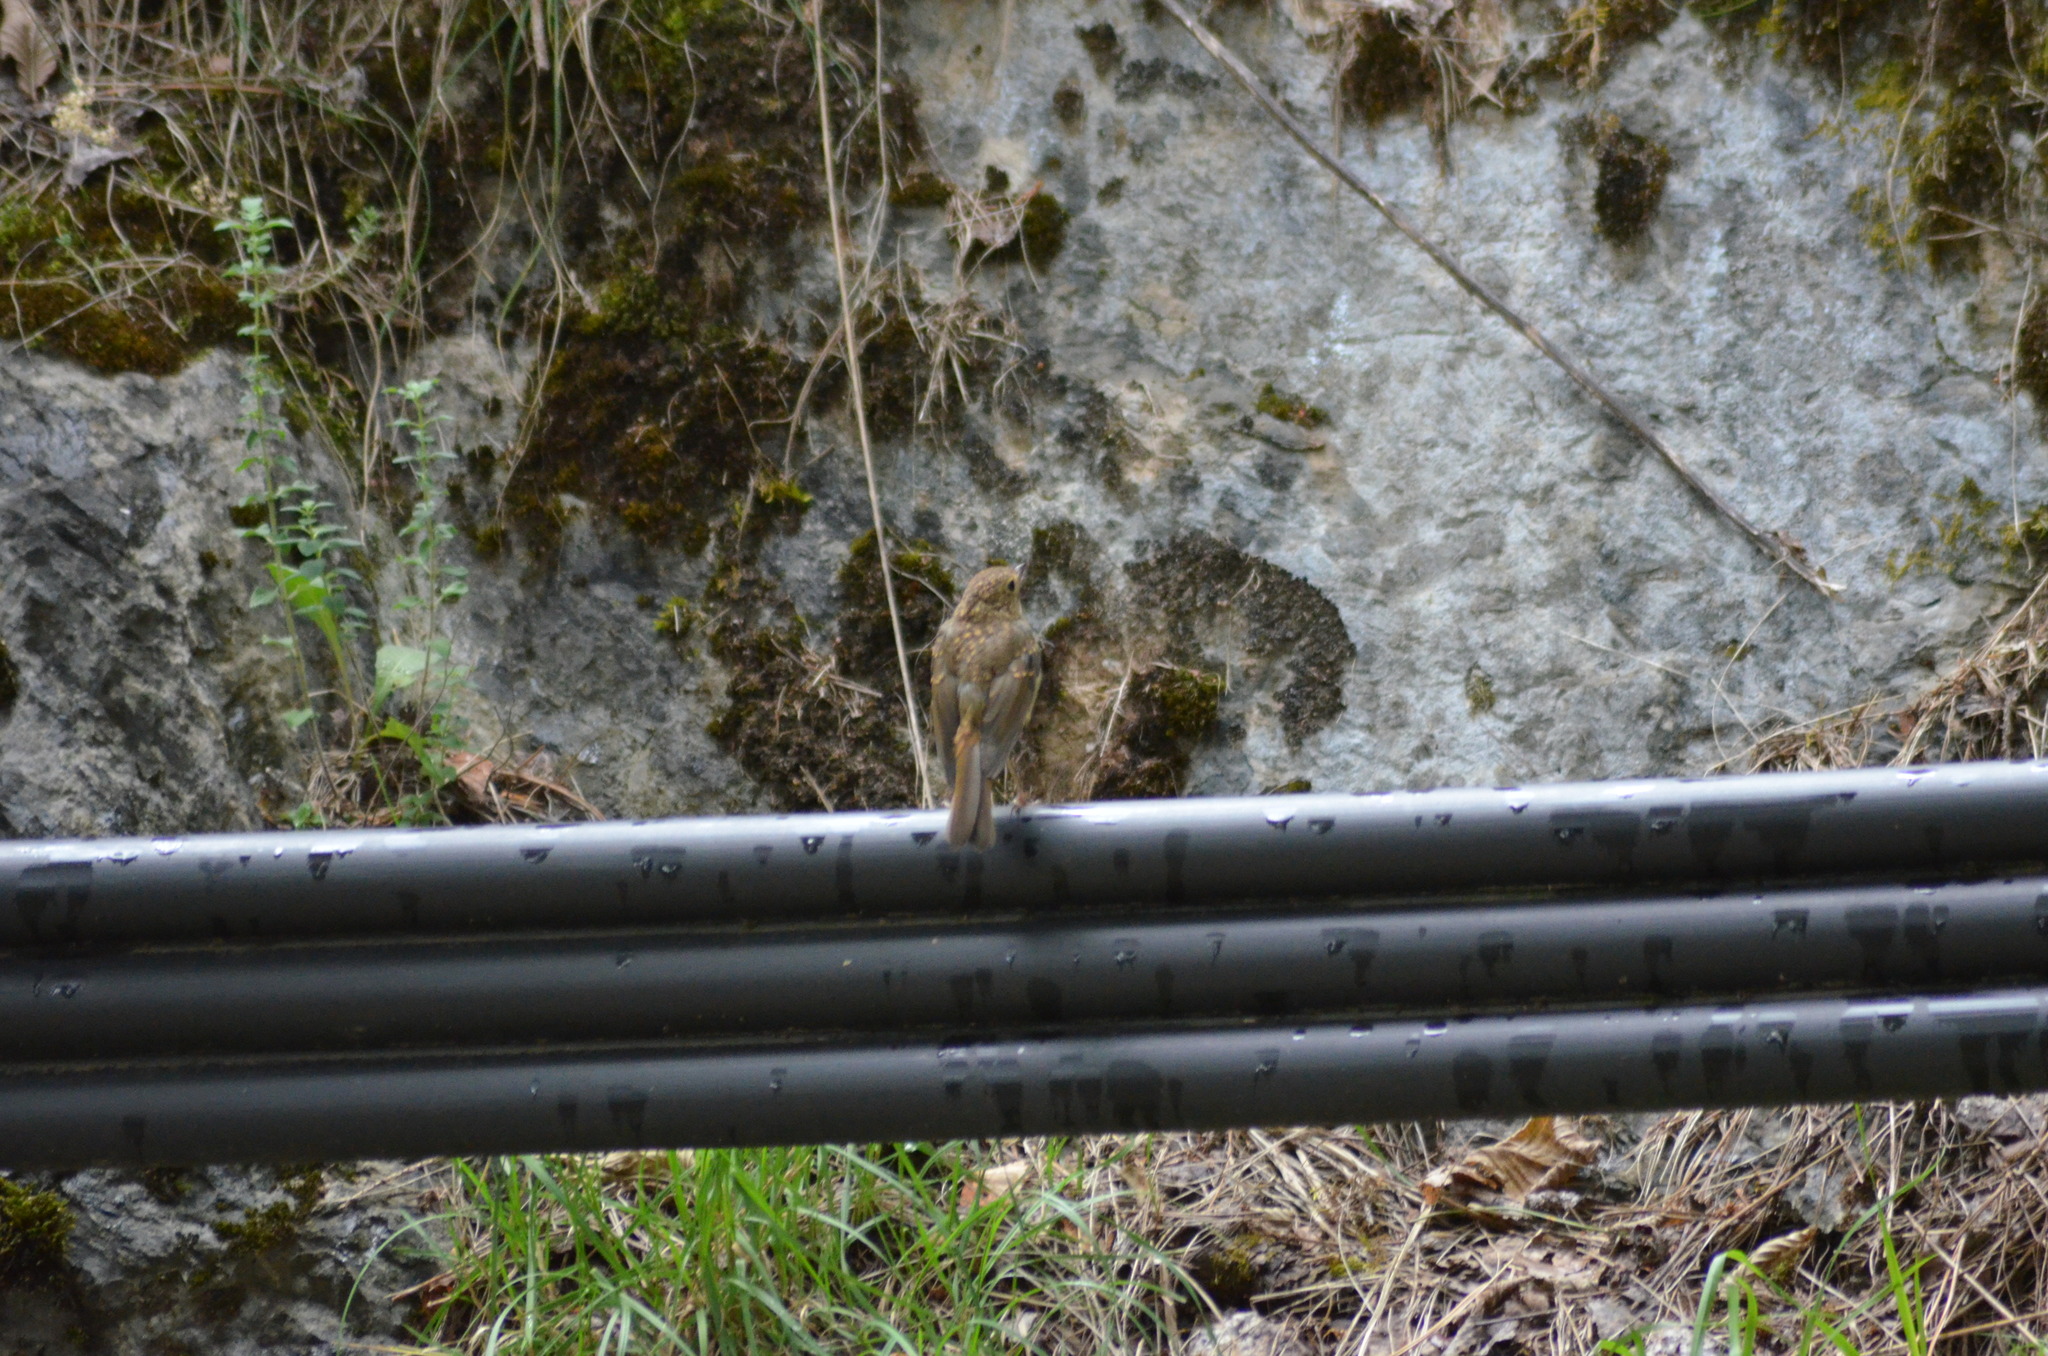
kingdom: Animalia
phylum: Chordata
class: Aves
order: Passeriformes
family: Muscicapidae
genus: Erithacus
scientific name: Erithacus rubecula
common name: European robin
